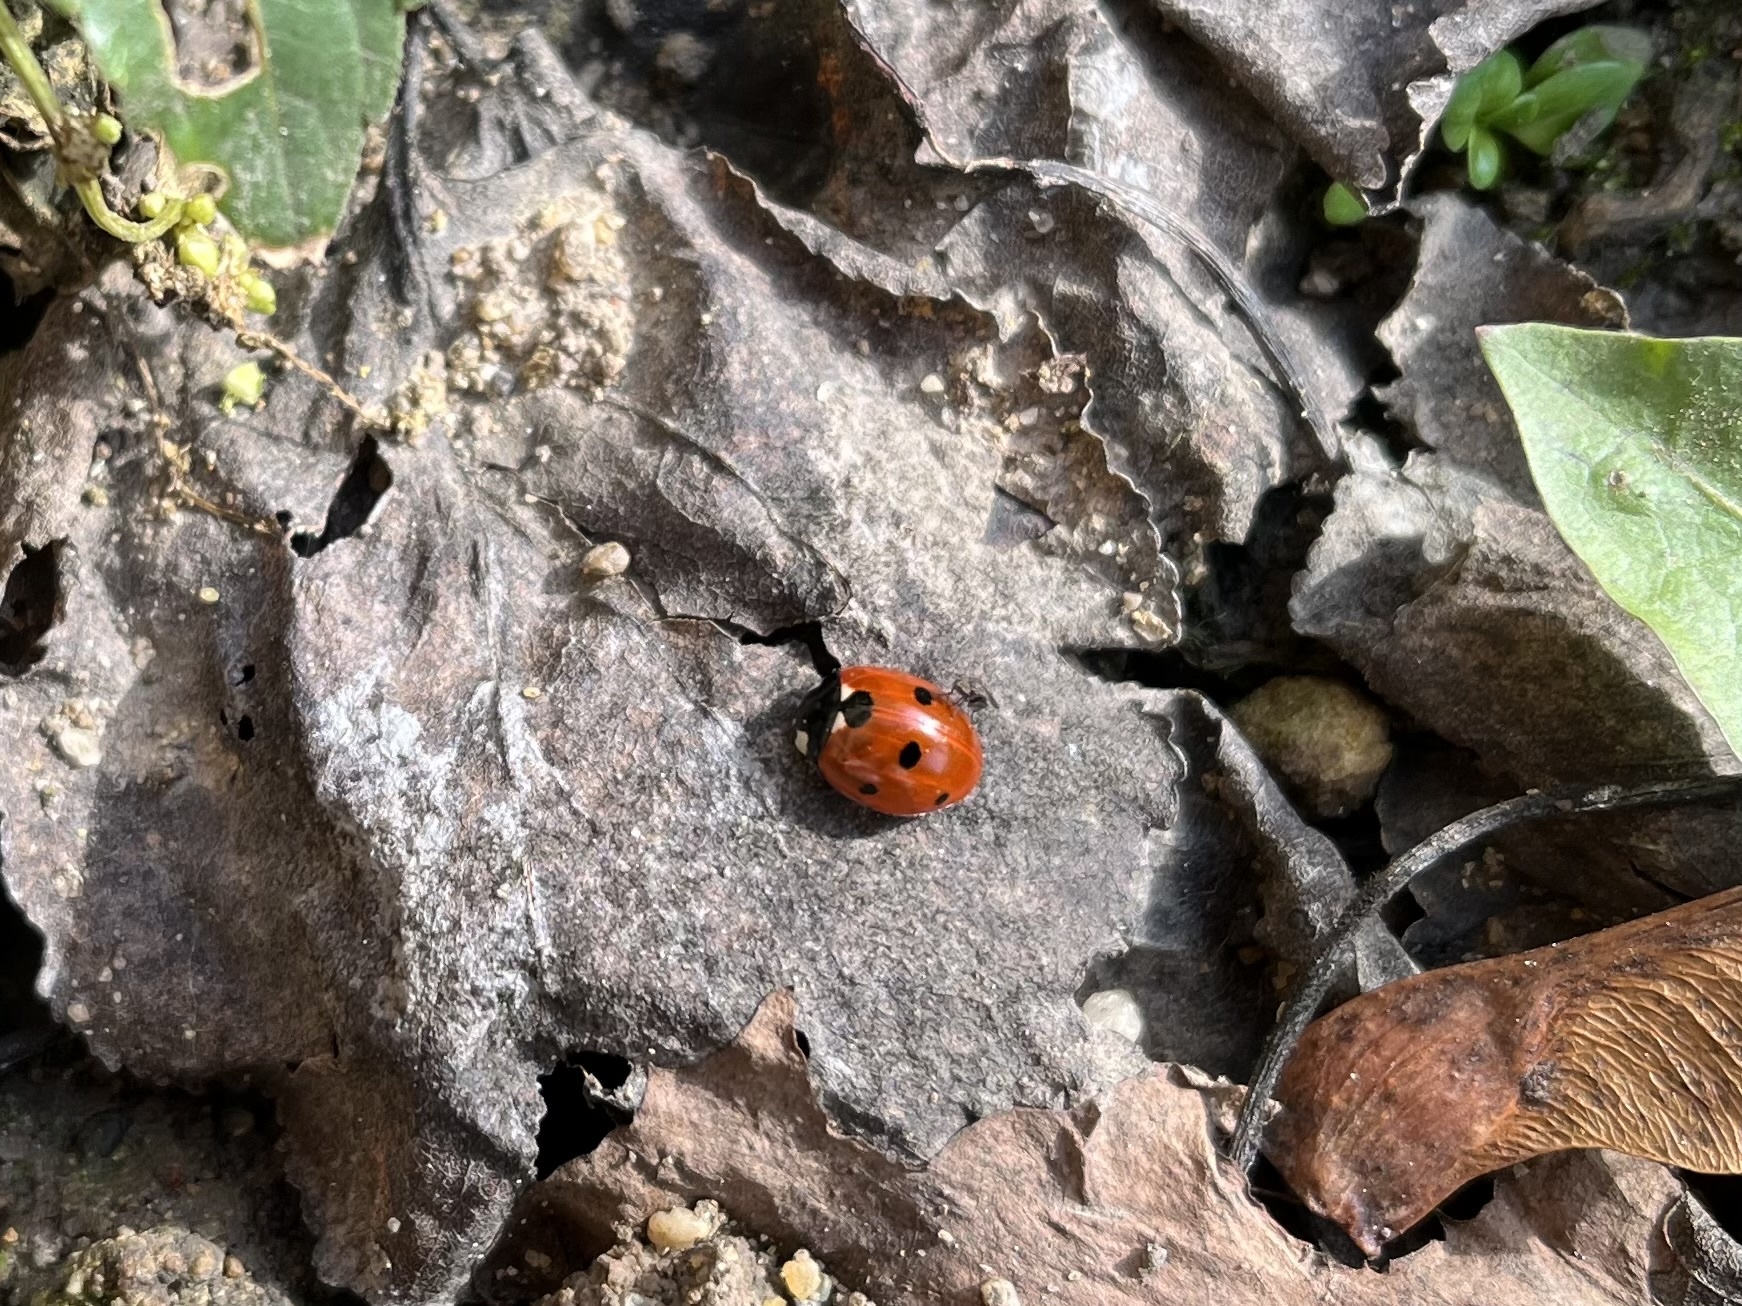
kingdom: Animalia
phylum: Arthropoda
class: Insecta
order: Coleoptera
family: Coccinellidae
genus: Coccinella
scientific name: Coccinella septempunctata
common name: Sevenspotted lady beetle
